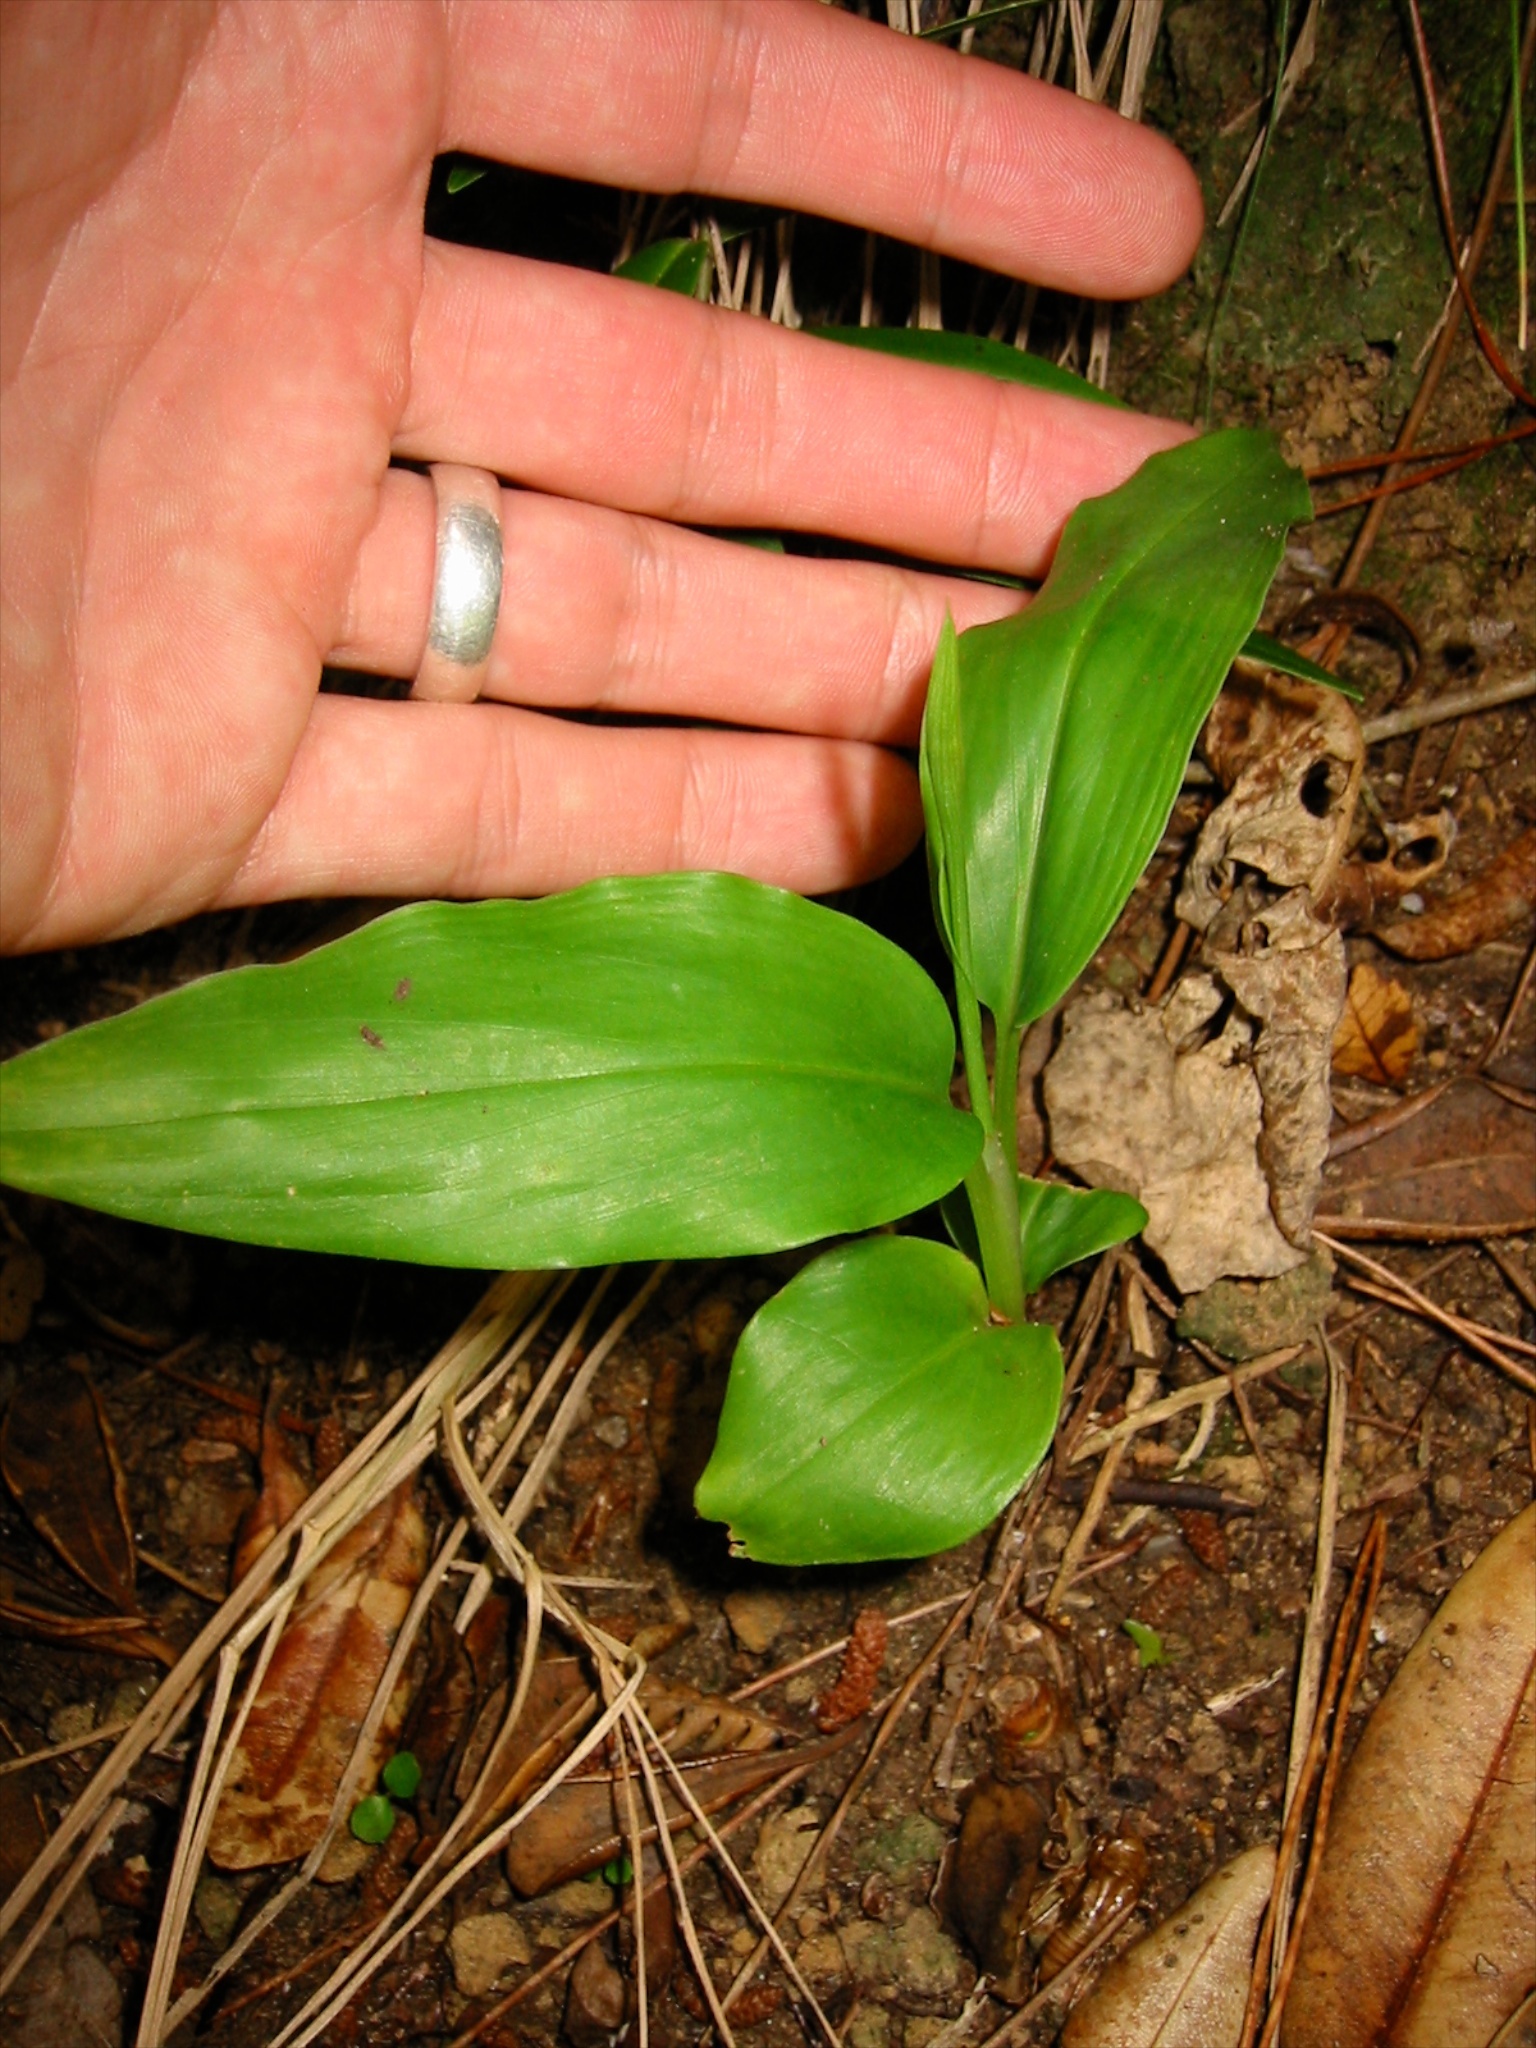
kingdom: Plantae
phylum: Tracheophyta
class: Liliopsida
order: Zingiberales
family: Zingiberaceae
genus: Hedychium
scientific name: Hedychium gardnerianum
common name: Himalayan ginger
